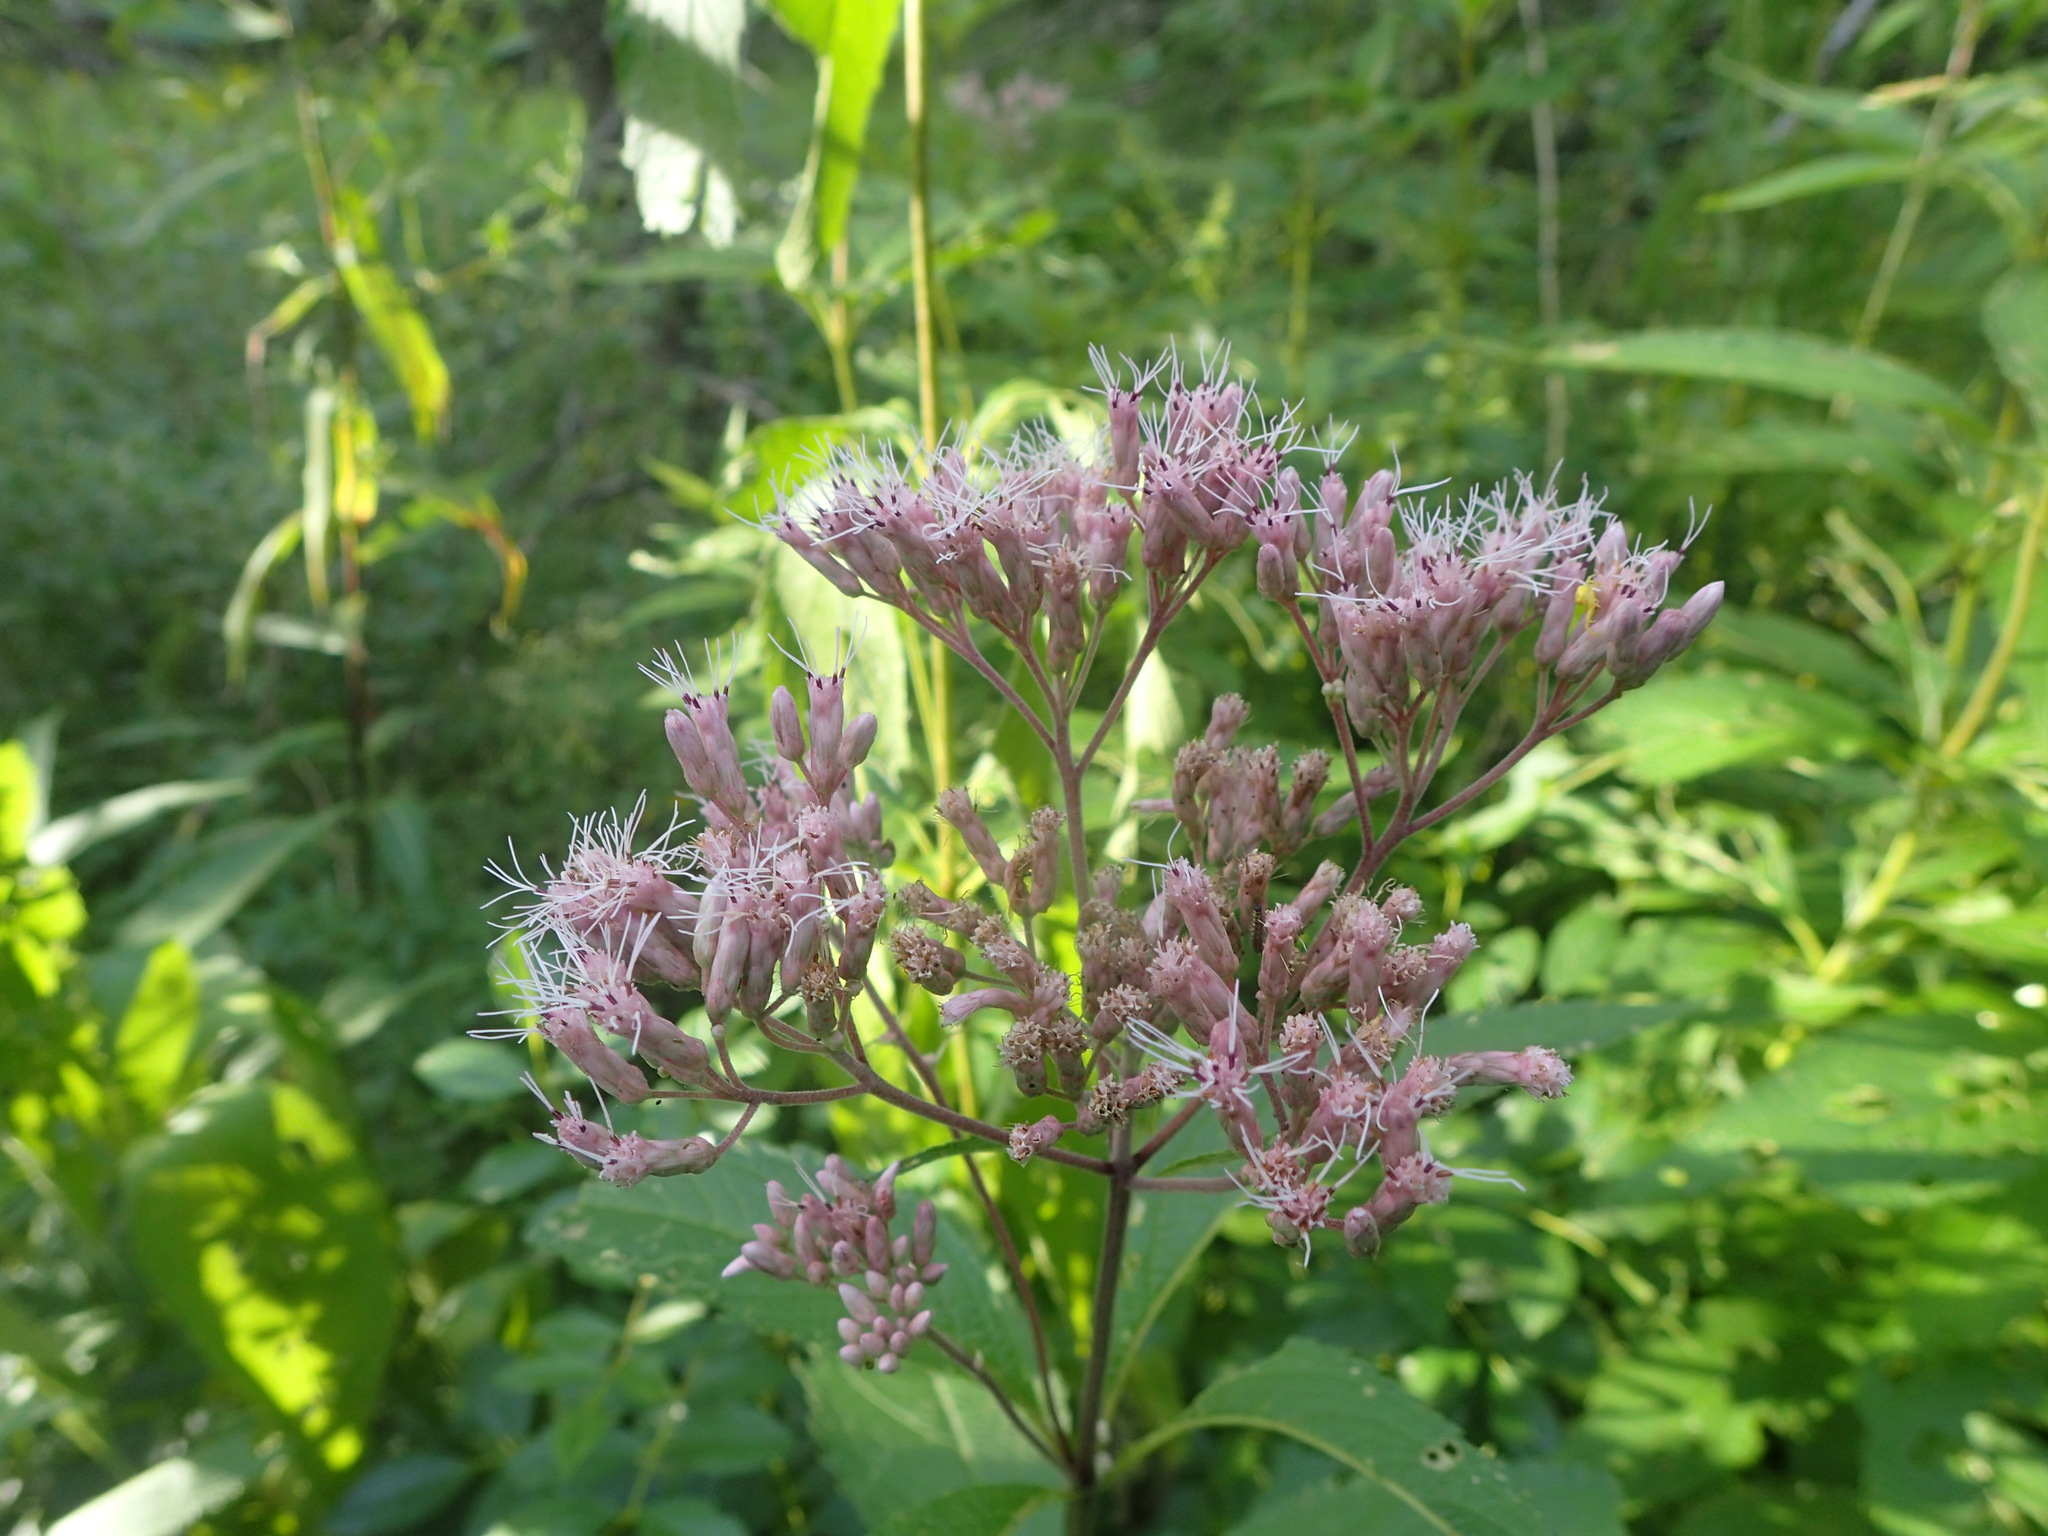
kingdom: Plantae
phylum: Tracheophyta
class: Magnoliopsida
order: Asterales
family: Asteraceae
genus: Eutrochium
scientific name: Eutrochium maculatum
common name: Spotted joe pye weed
